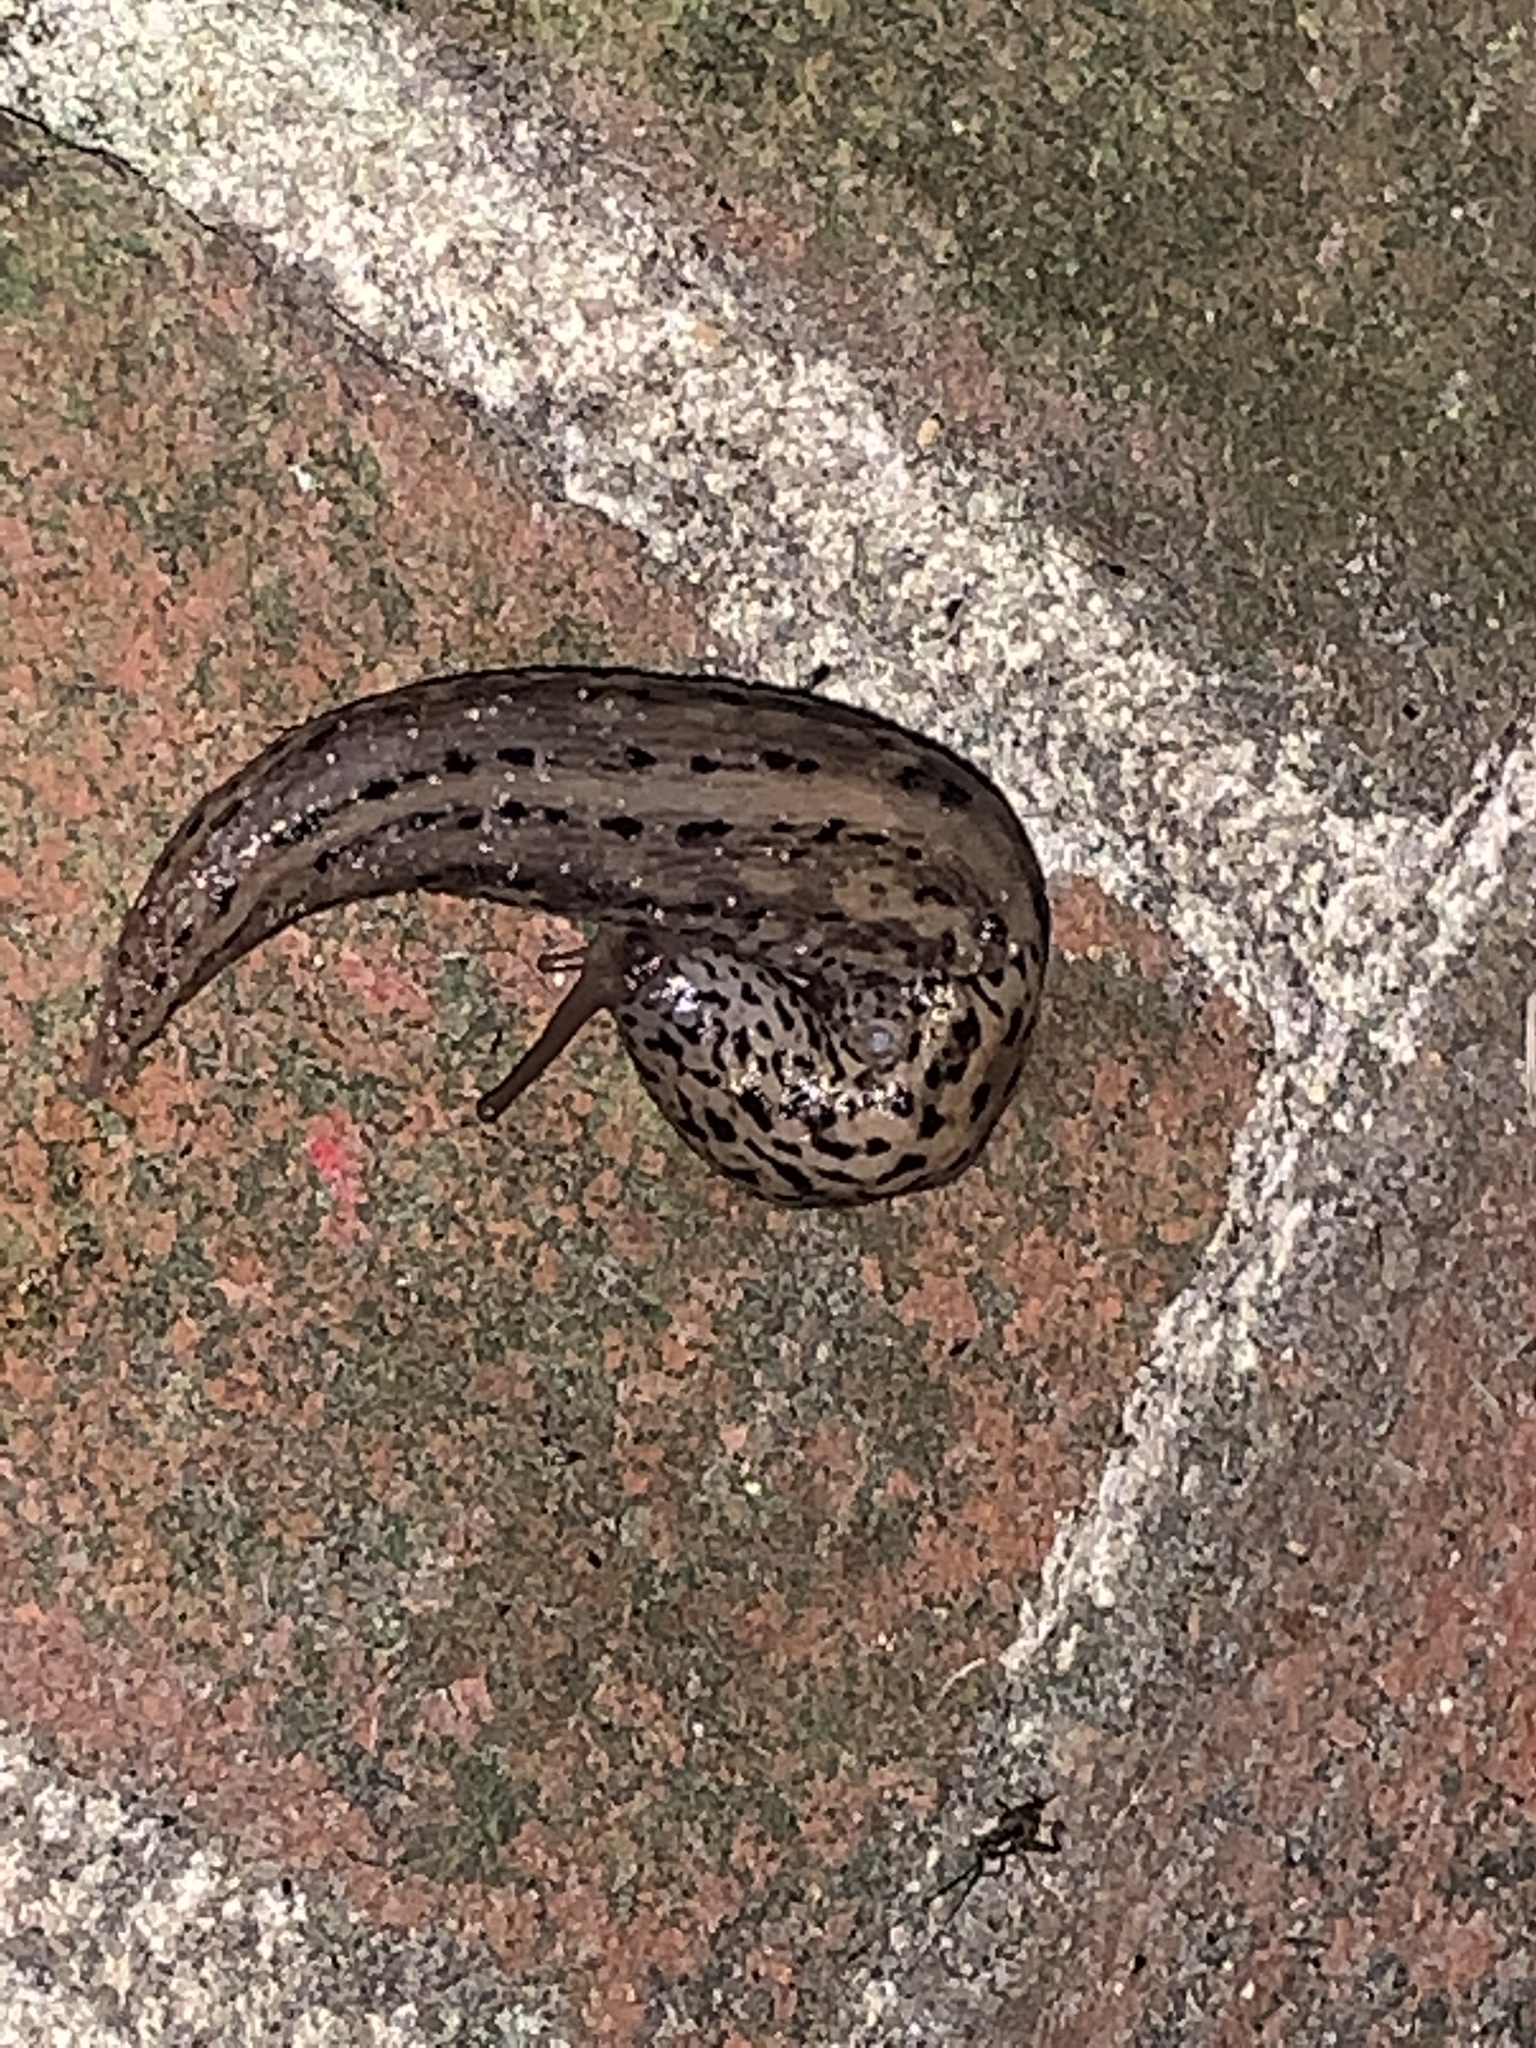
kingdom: Animalia
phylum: Mollusca
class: Gastropoda
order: Stylommatophora
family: Limacidae
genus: Limax
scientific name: Limax maximus
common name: Great grey slug
